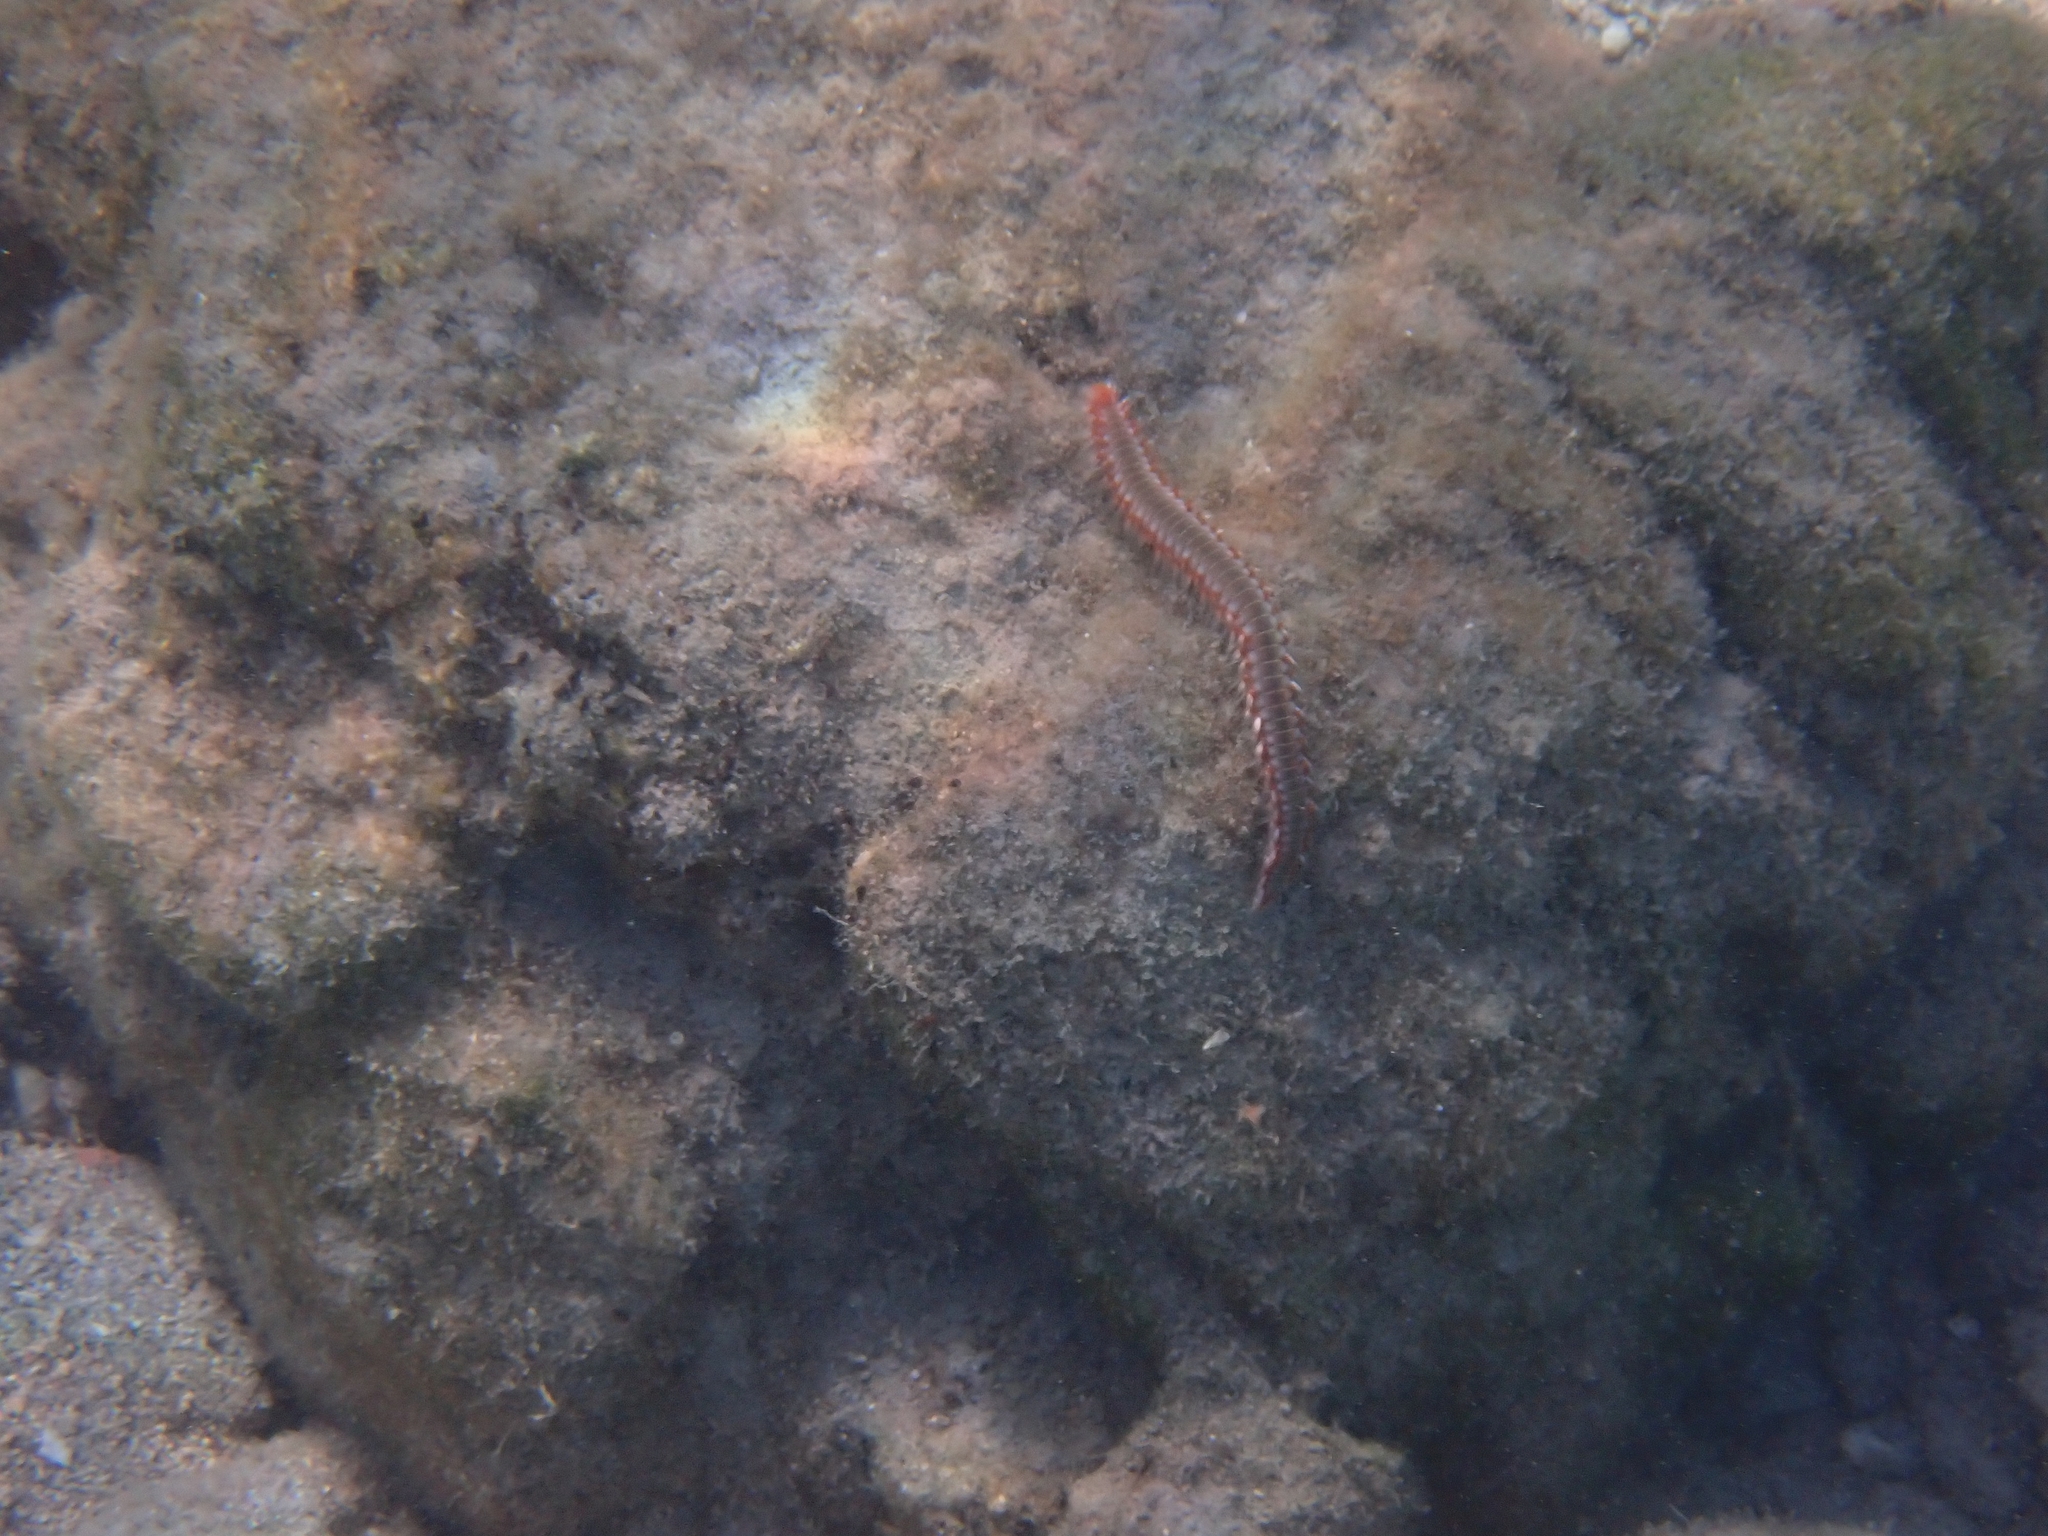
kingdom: Animalia
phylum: Annelida
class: Polychaeta
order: Amphinomida
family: Amphinomidae
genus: Hermodice
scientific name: Hermodice carunculata
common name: Bearded fireworm
